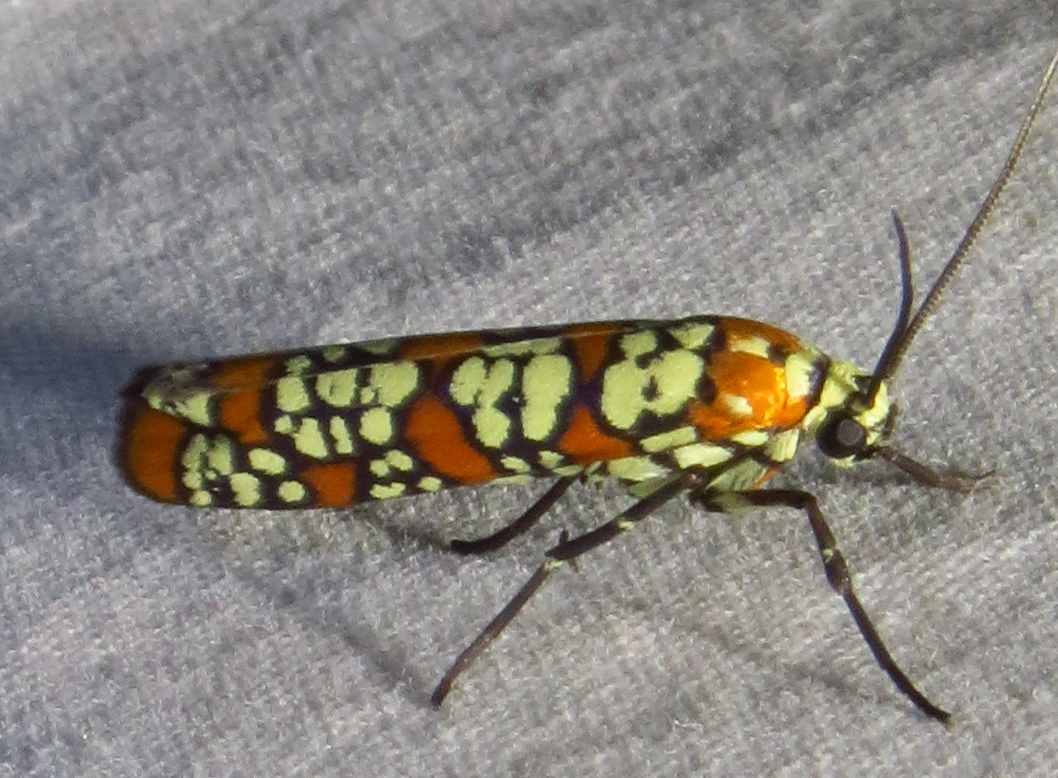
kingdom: Animalia
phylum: Arthropoda
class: Insecta
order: Lepidoptera
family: Attevidae
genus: Atteva
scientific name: Atteva punctella
